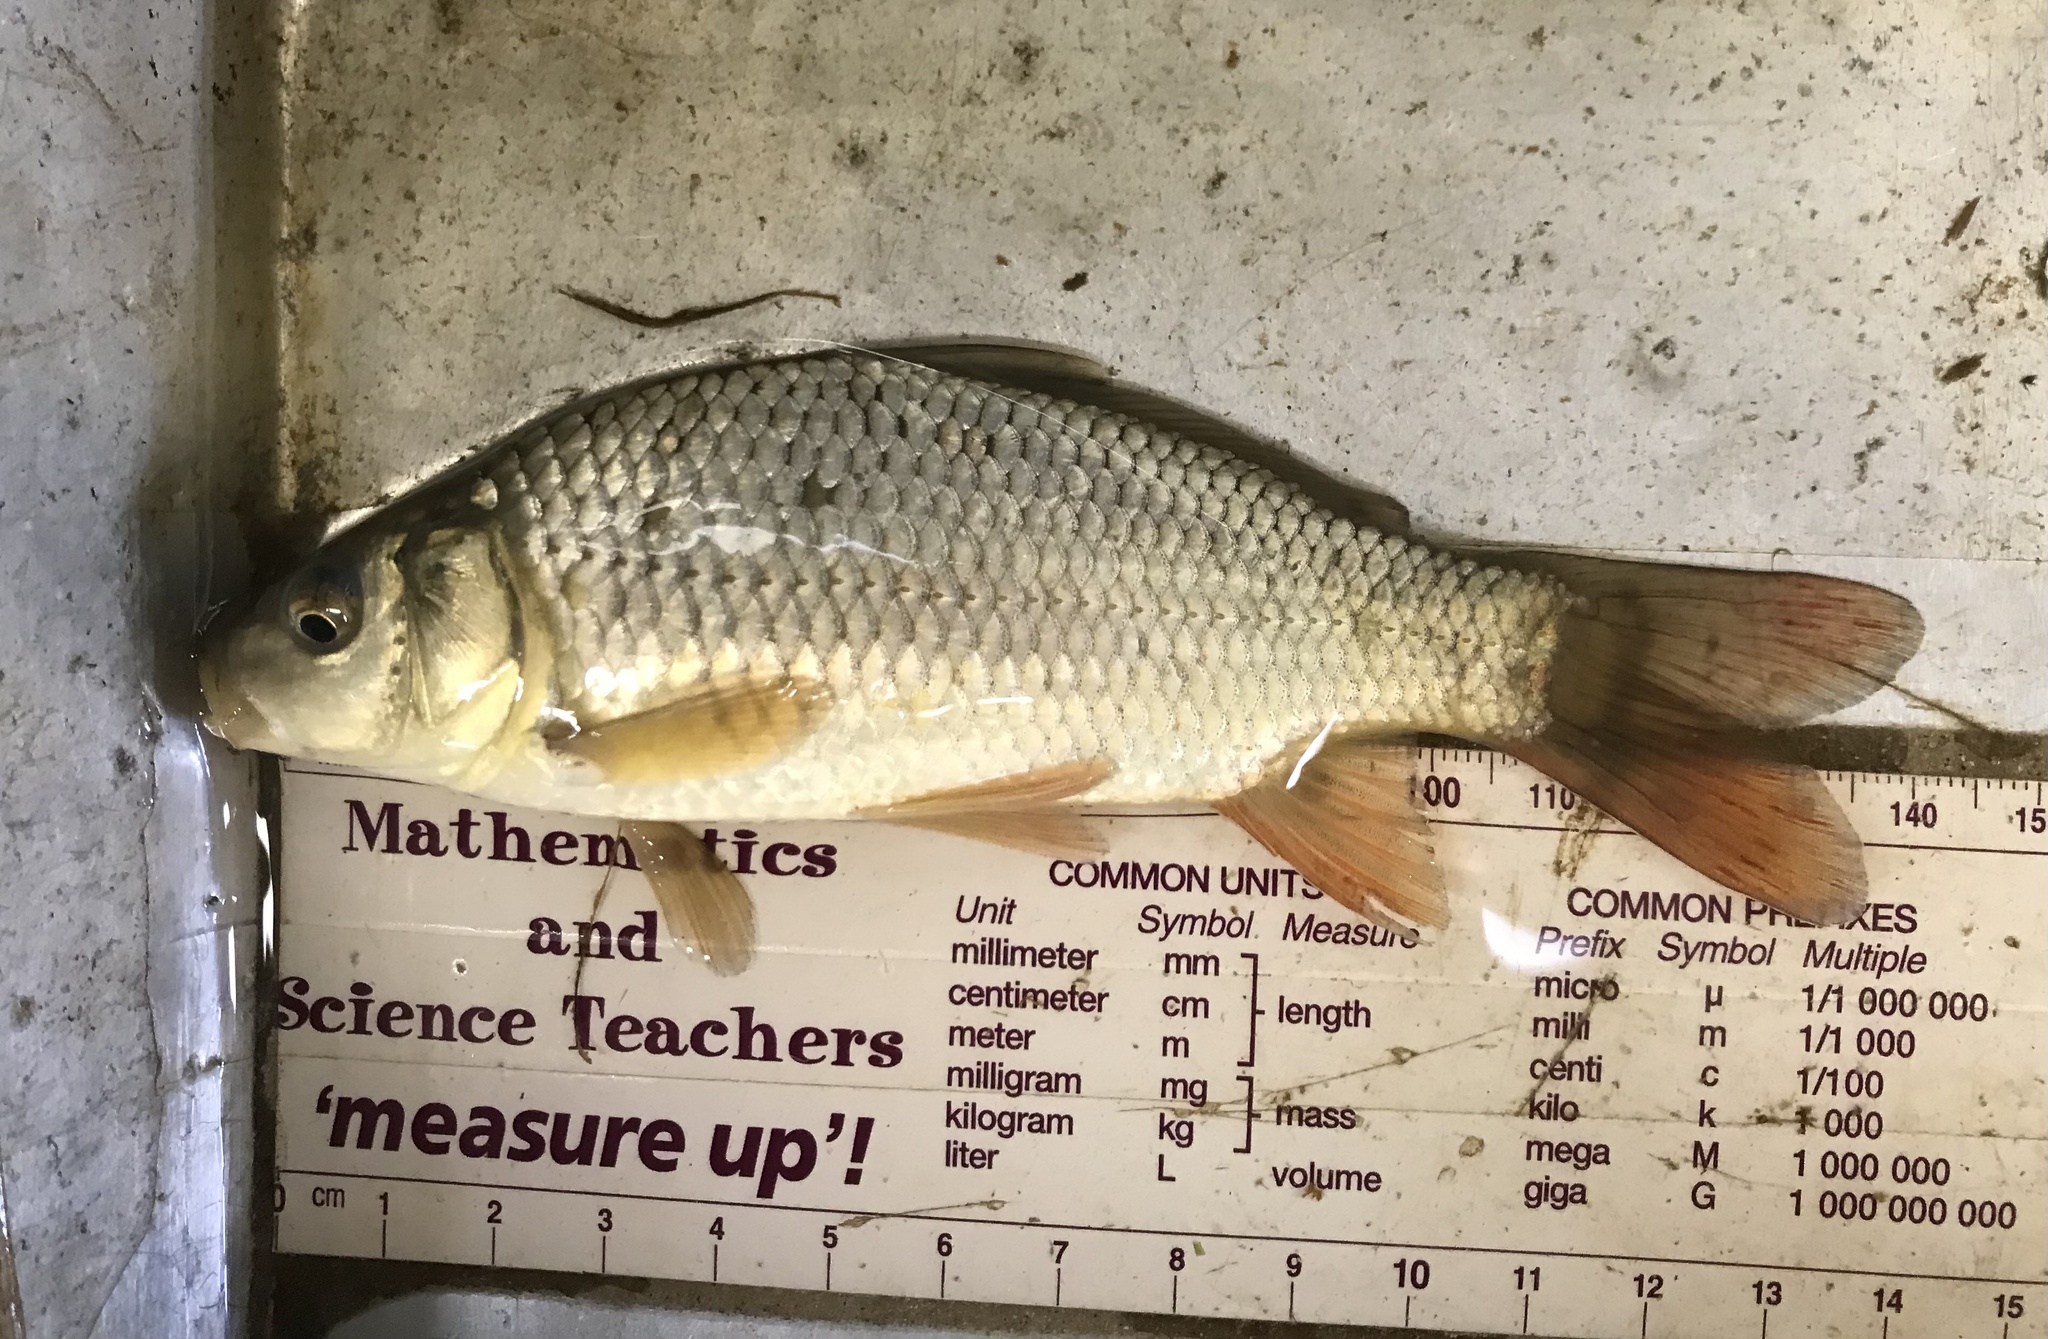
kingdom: Animalia
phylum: Chordata
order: Cypriniformes
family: Cyprinidae
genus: Cyprinus
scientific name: Cyprinus carpio
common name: Common carp
